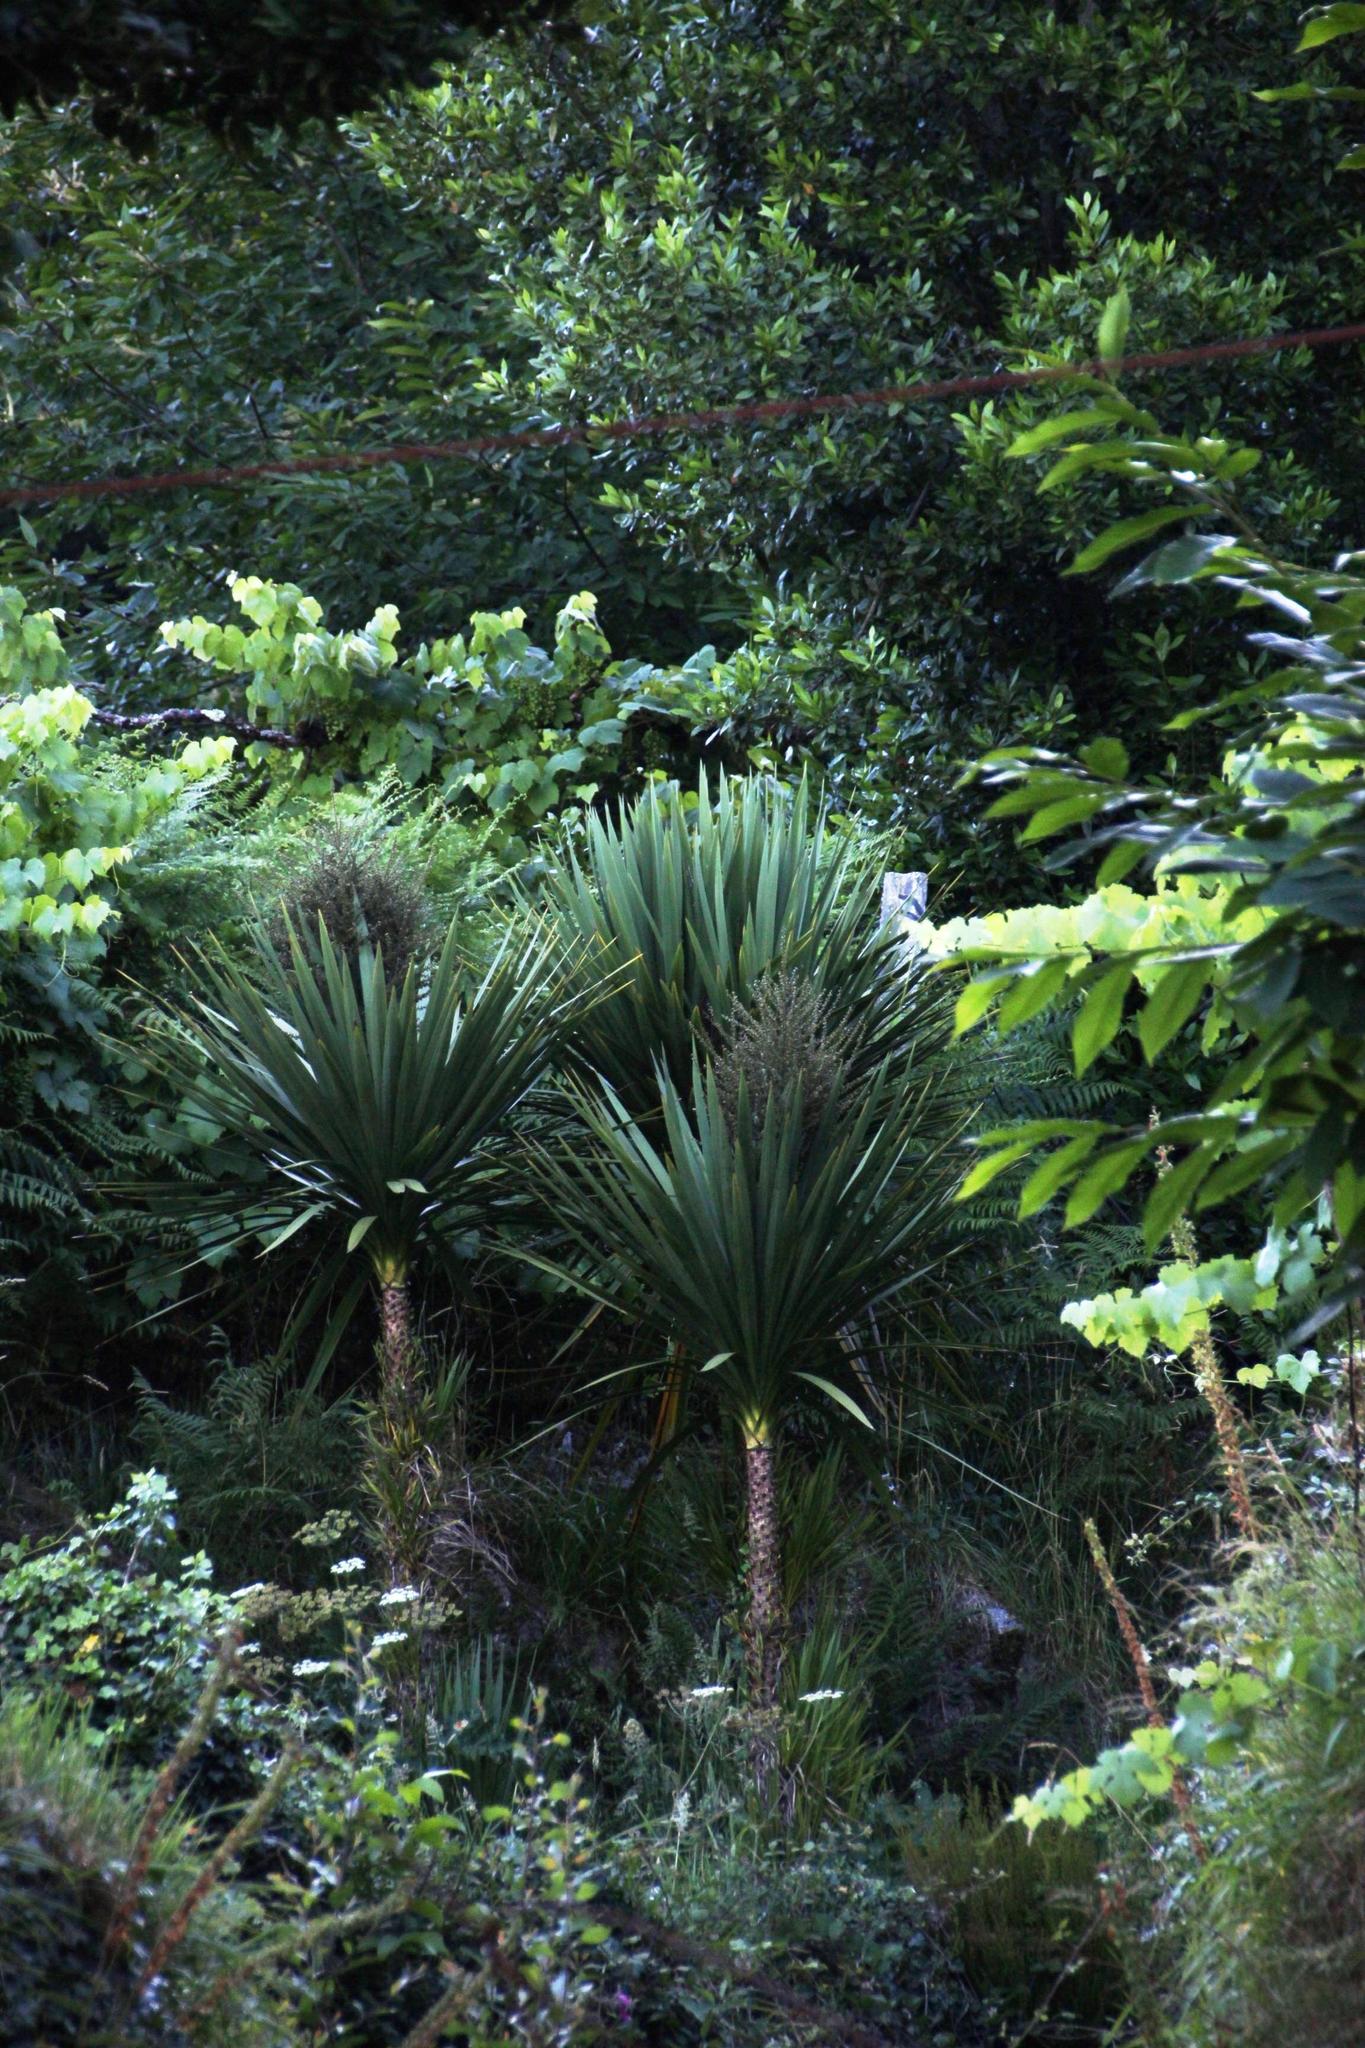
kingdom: Plantae
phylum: Tracheophyta
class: Liliopsida
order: Asparagales
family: Asparagaceae
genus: Cordyline
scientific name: Cordyline australis
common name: Cabbage-palm
